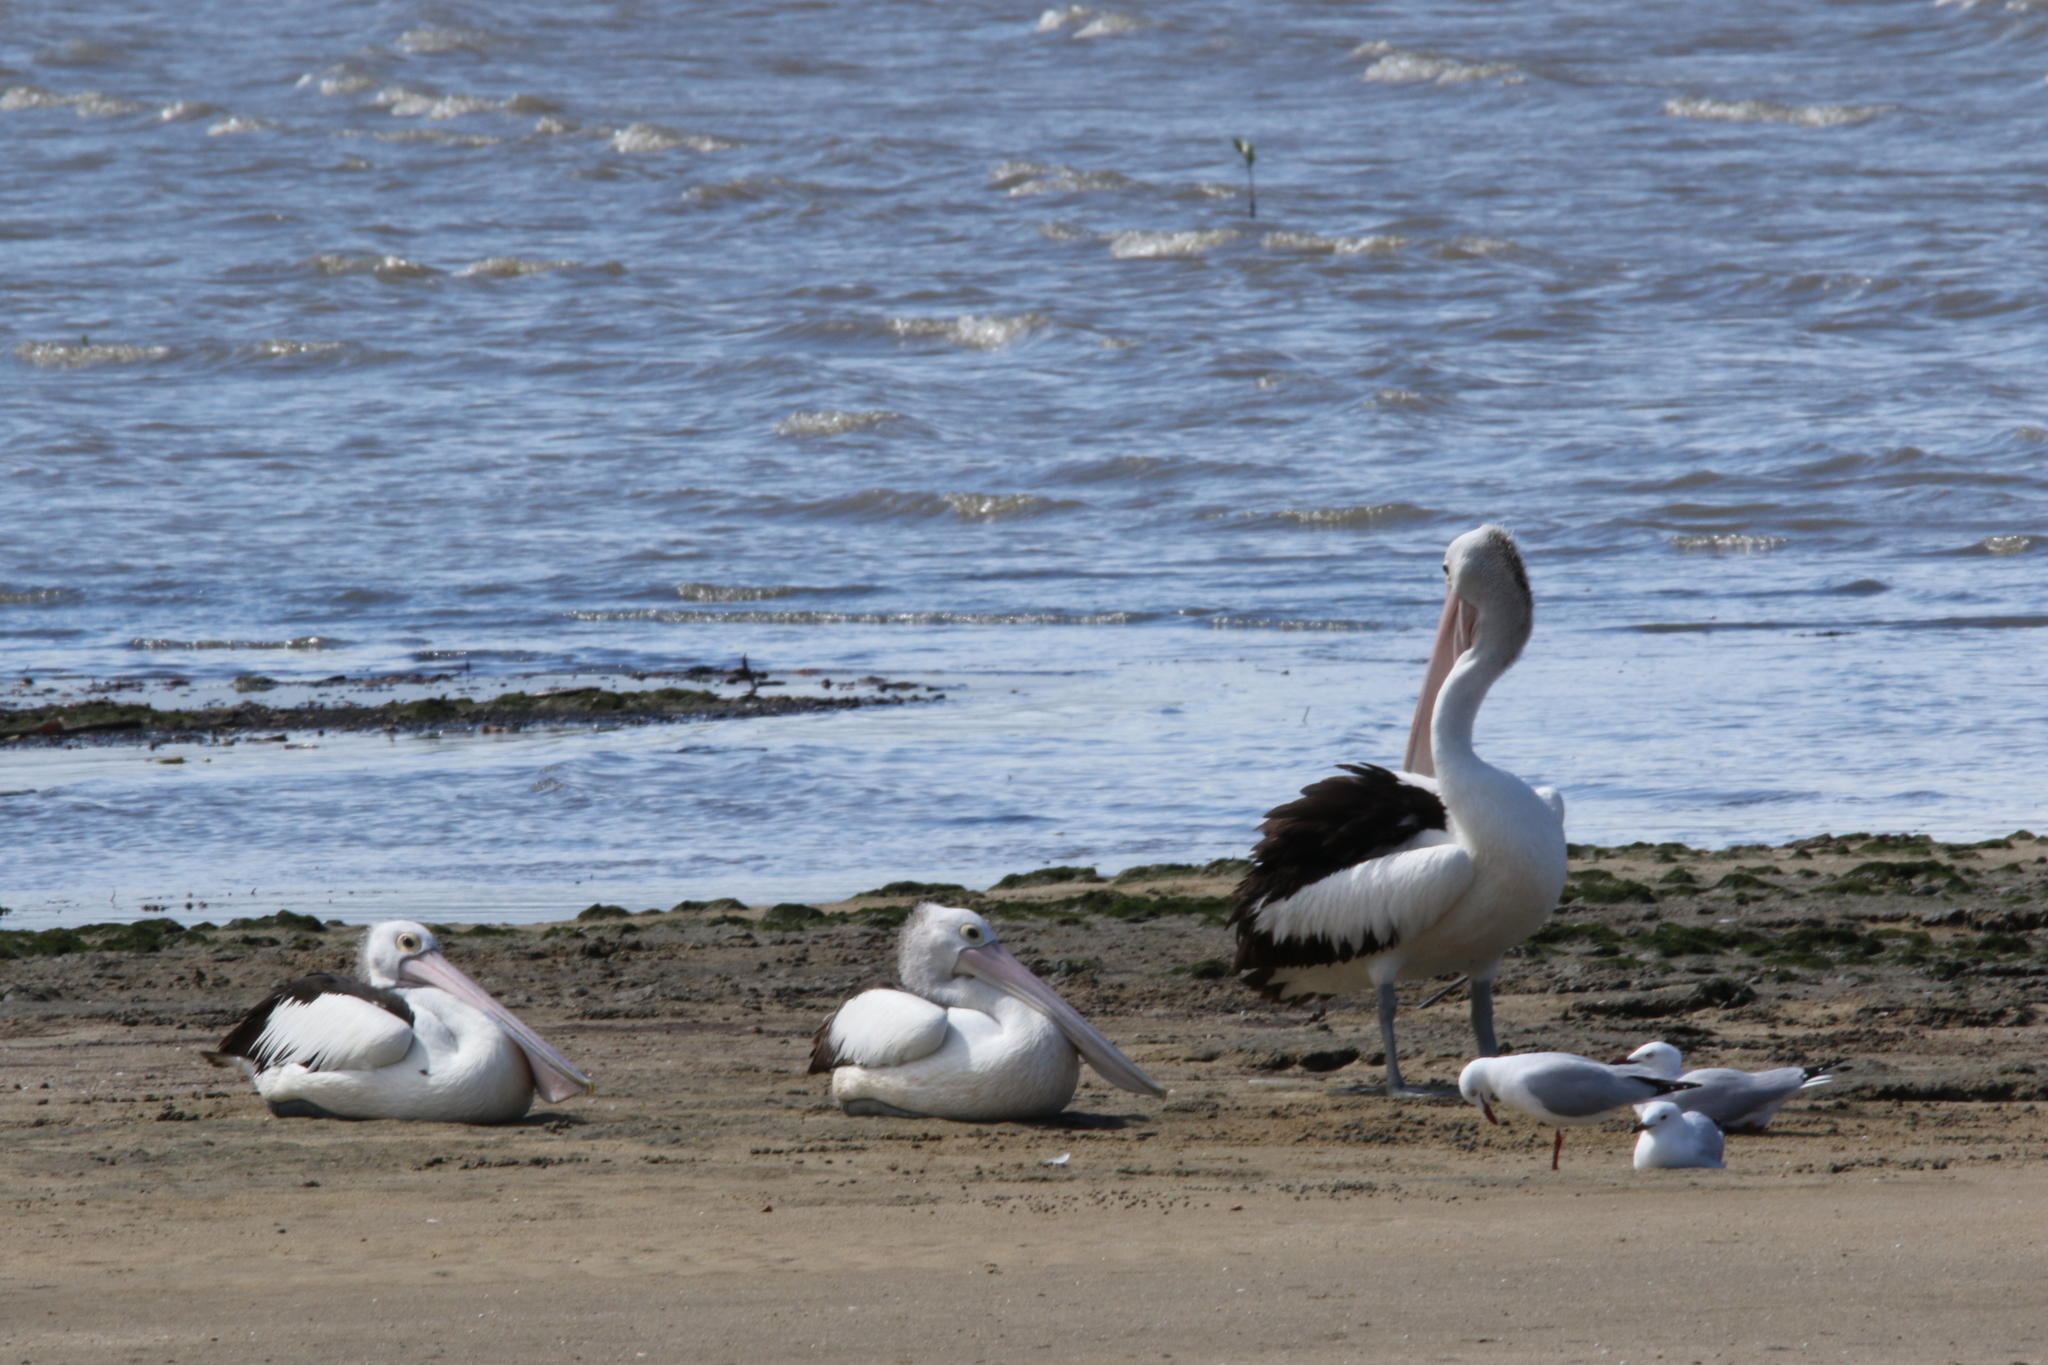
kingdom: Animalia
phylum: Chordata
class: Aves
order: Pelecaniformes
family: Pelecanidae
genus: Pelecanus
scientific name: Pelecanus conspicillatus
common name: Australian pelican
